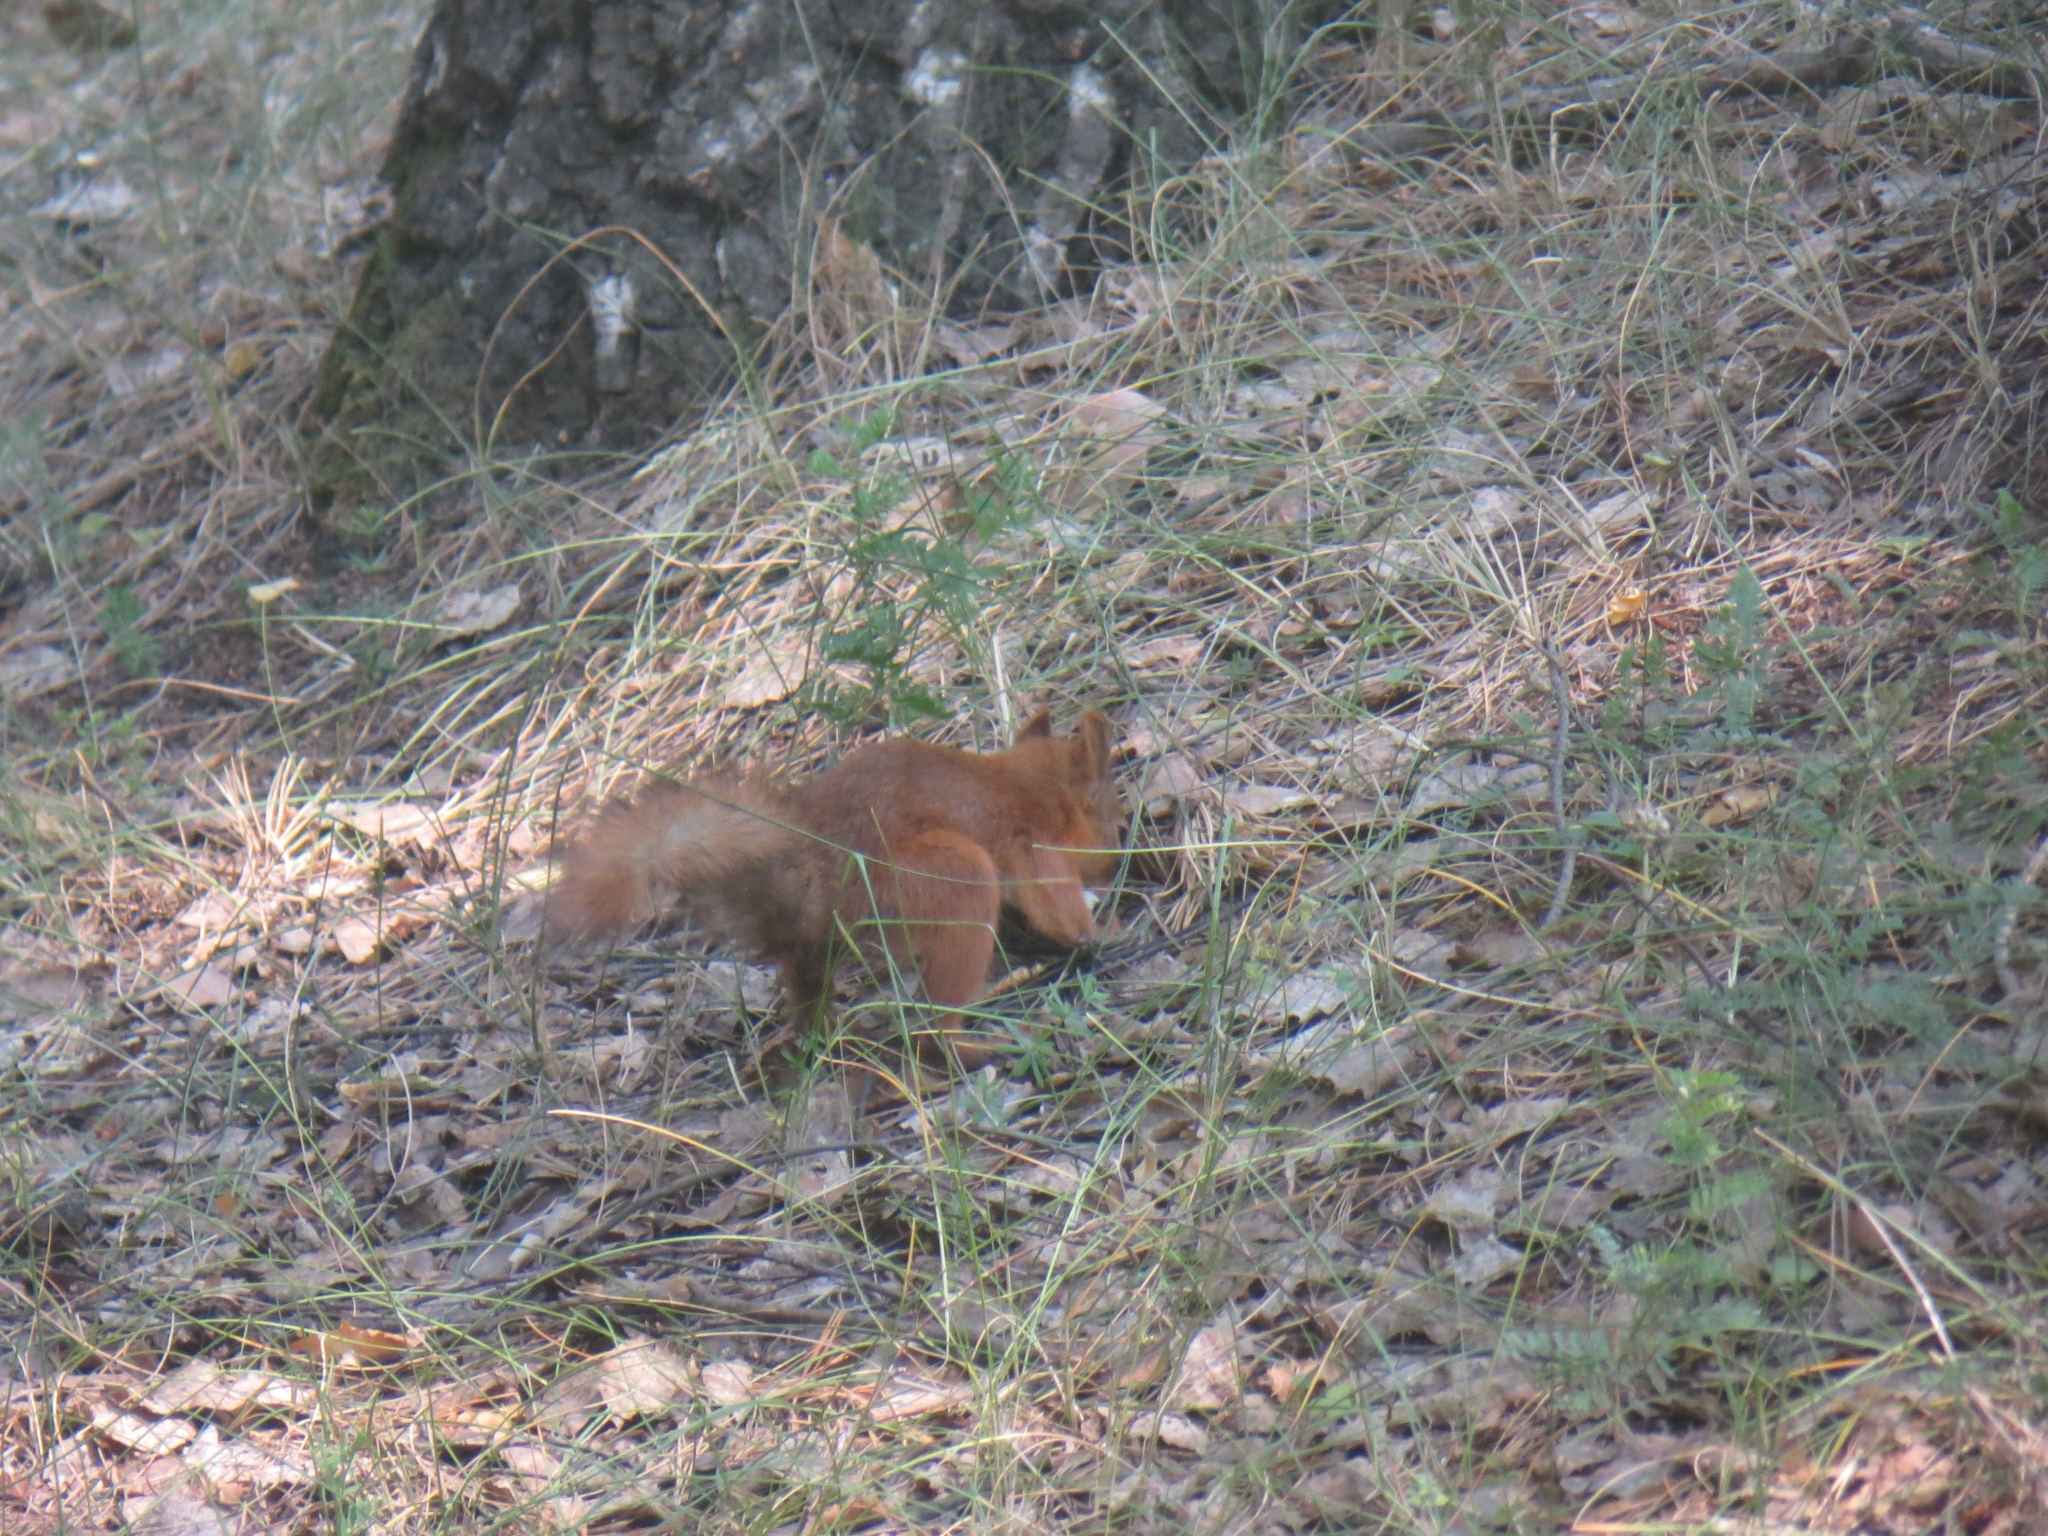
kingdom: Animalia
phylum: Chordata
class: Mammalia
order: Rodentia
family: Sciuridae
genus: Sciurus
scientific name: Sciurus vulgaris
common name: Eurasian red squirrel
